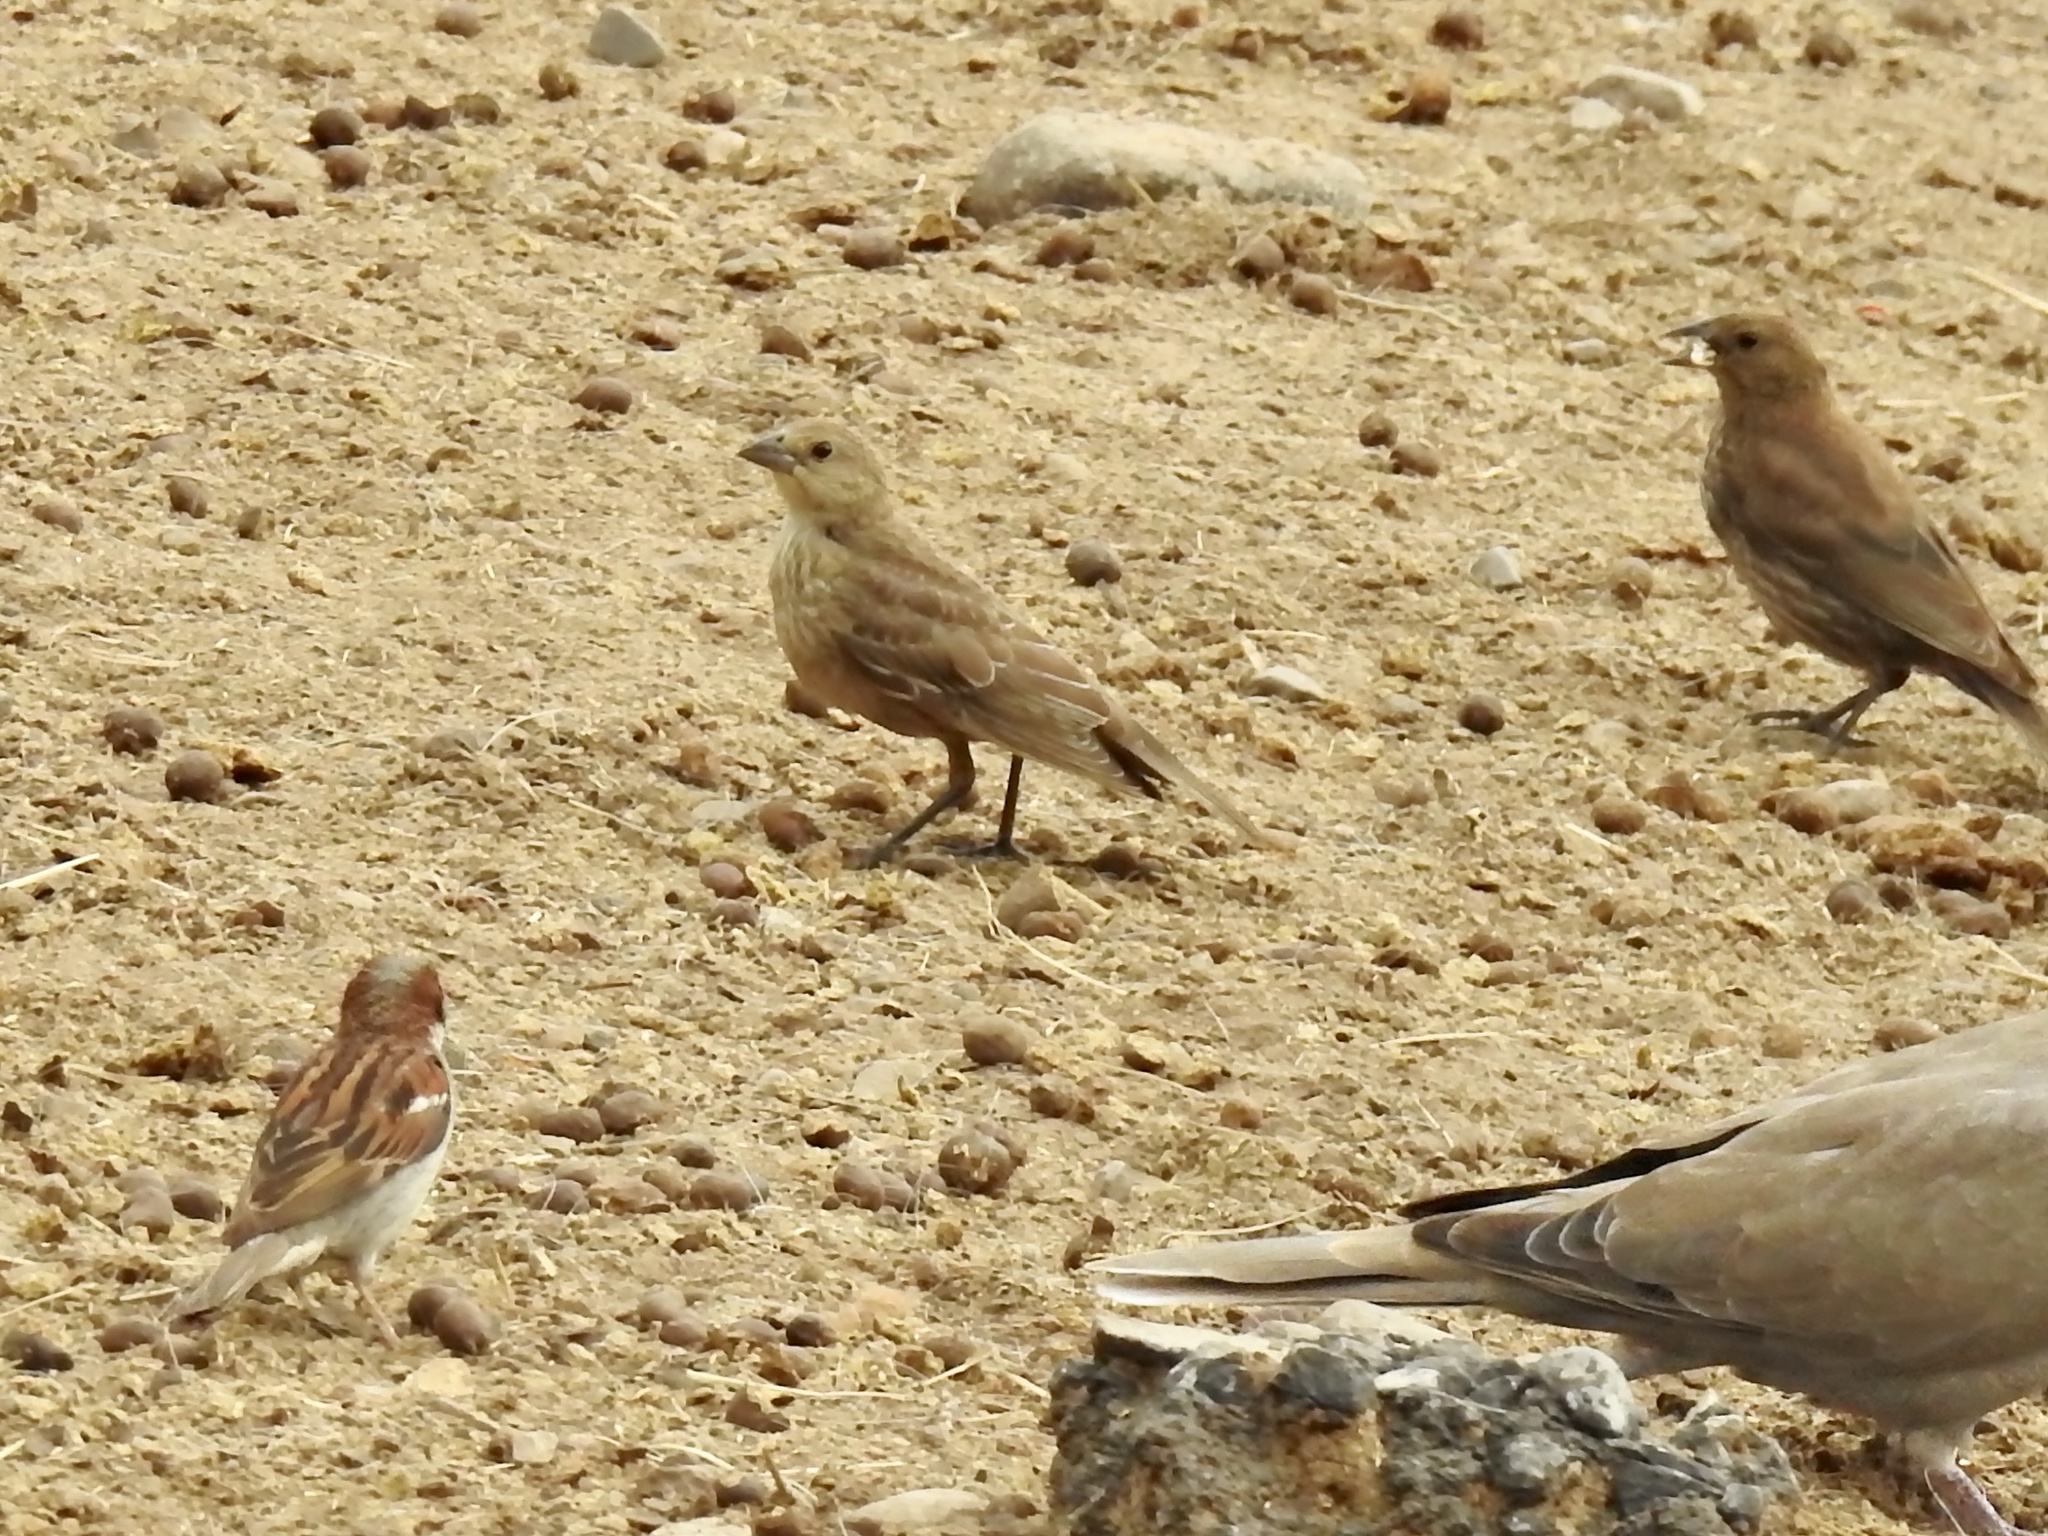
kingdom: Animalia
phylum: Chordata
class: Aves
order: Passeriformes
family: Passeridae
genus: Passer
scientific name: Passer domesticus
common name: House sparrow
